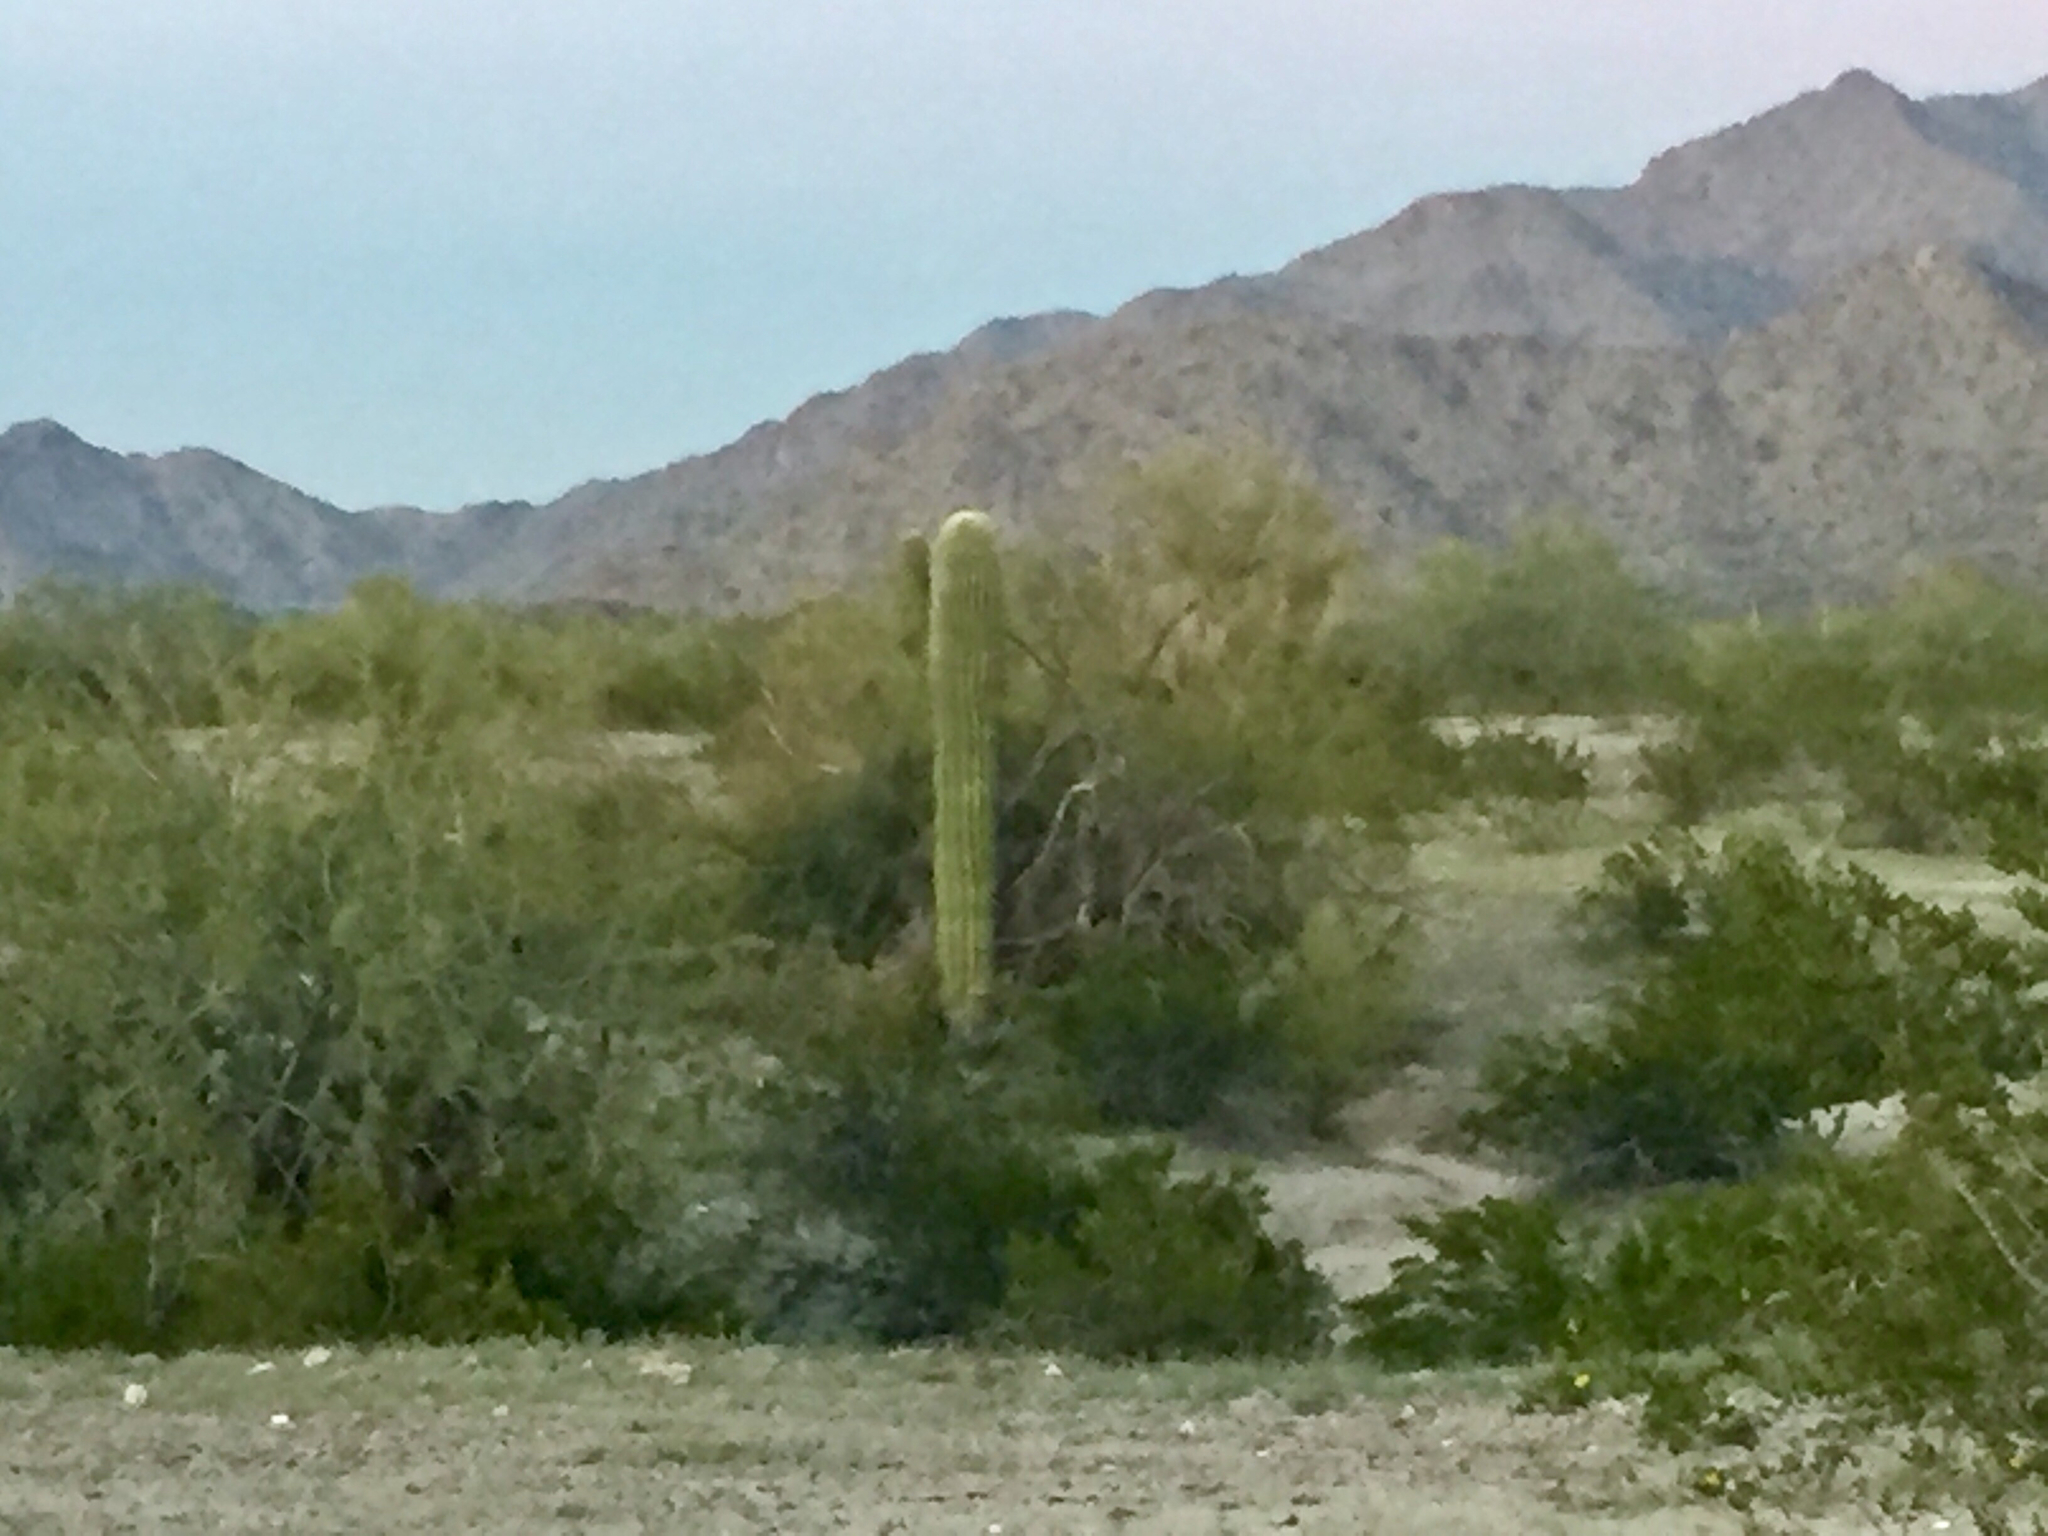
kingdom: Plantae
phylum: Tracheophyta
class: Magnoliopsida
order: Caryophyllales
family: Cactaceae
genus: Carnegiea
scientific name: Carnegiea gigantea
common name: Saguaro
